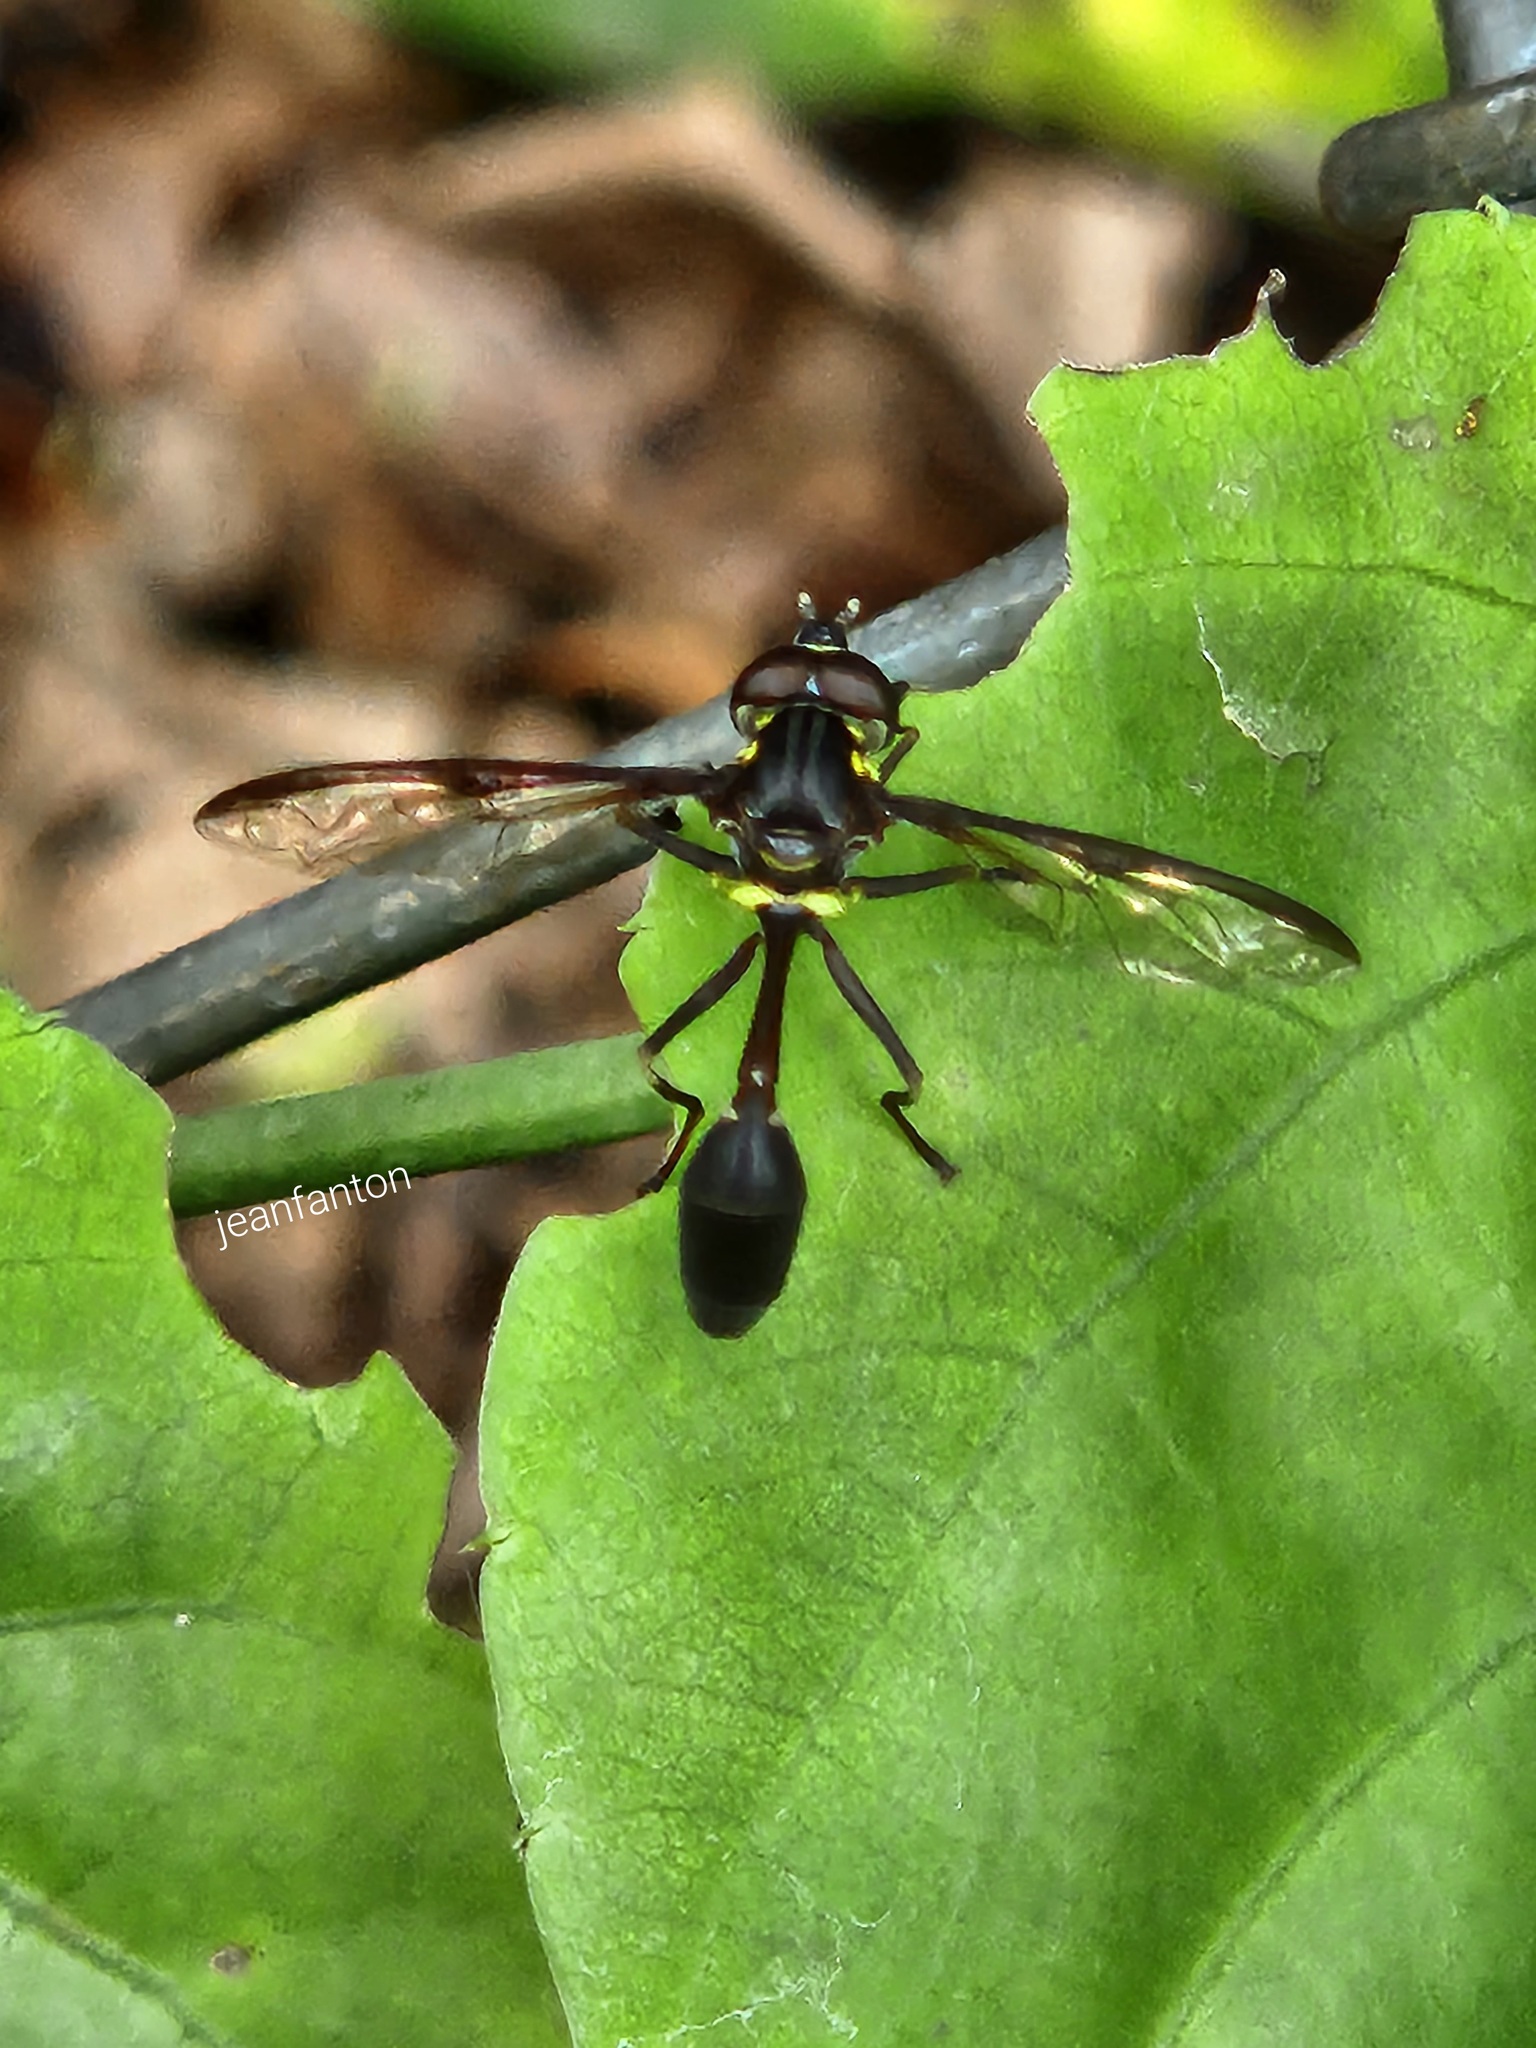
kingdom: Animalia
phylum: Arthropoda
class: Insecta
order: Diptera
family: Syrphidae
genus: Salpingogaster
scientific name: Salpingogaster nigra
